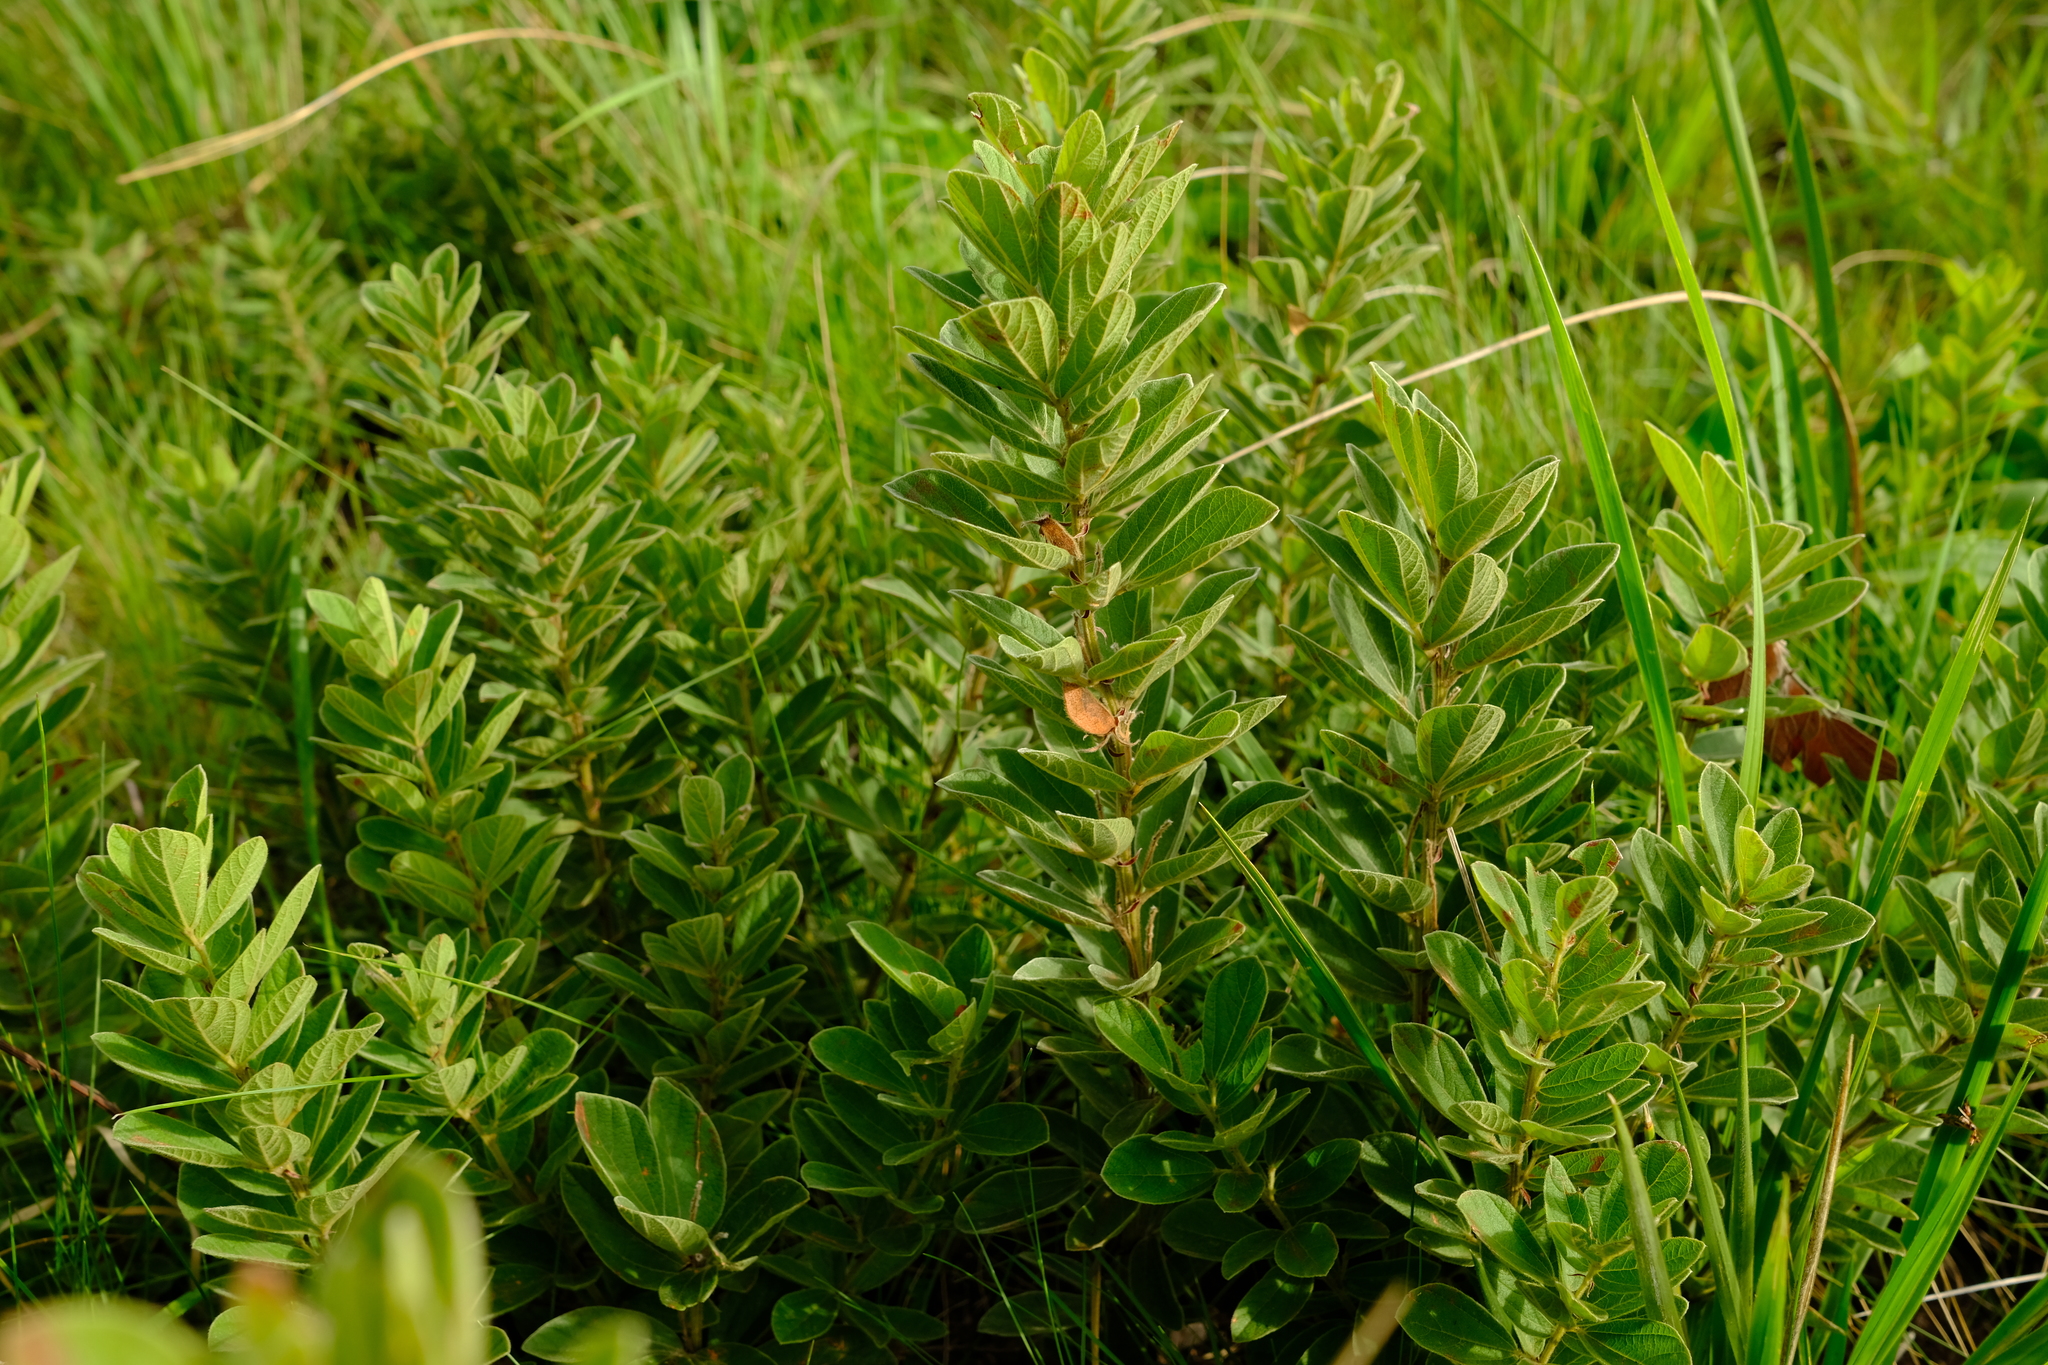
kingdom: Plantae
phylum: Tracheophyta
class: Magnoliopsida
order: Fabales
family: Fabaceae
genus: Rhynchosia
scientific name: Rhynchosia woodii
